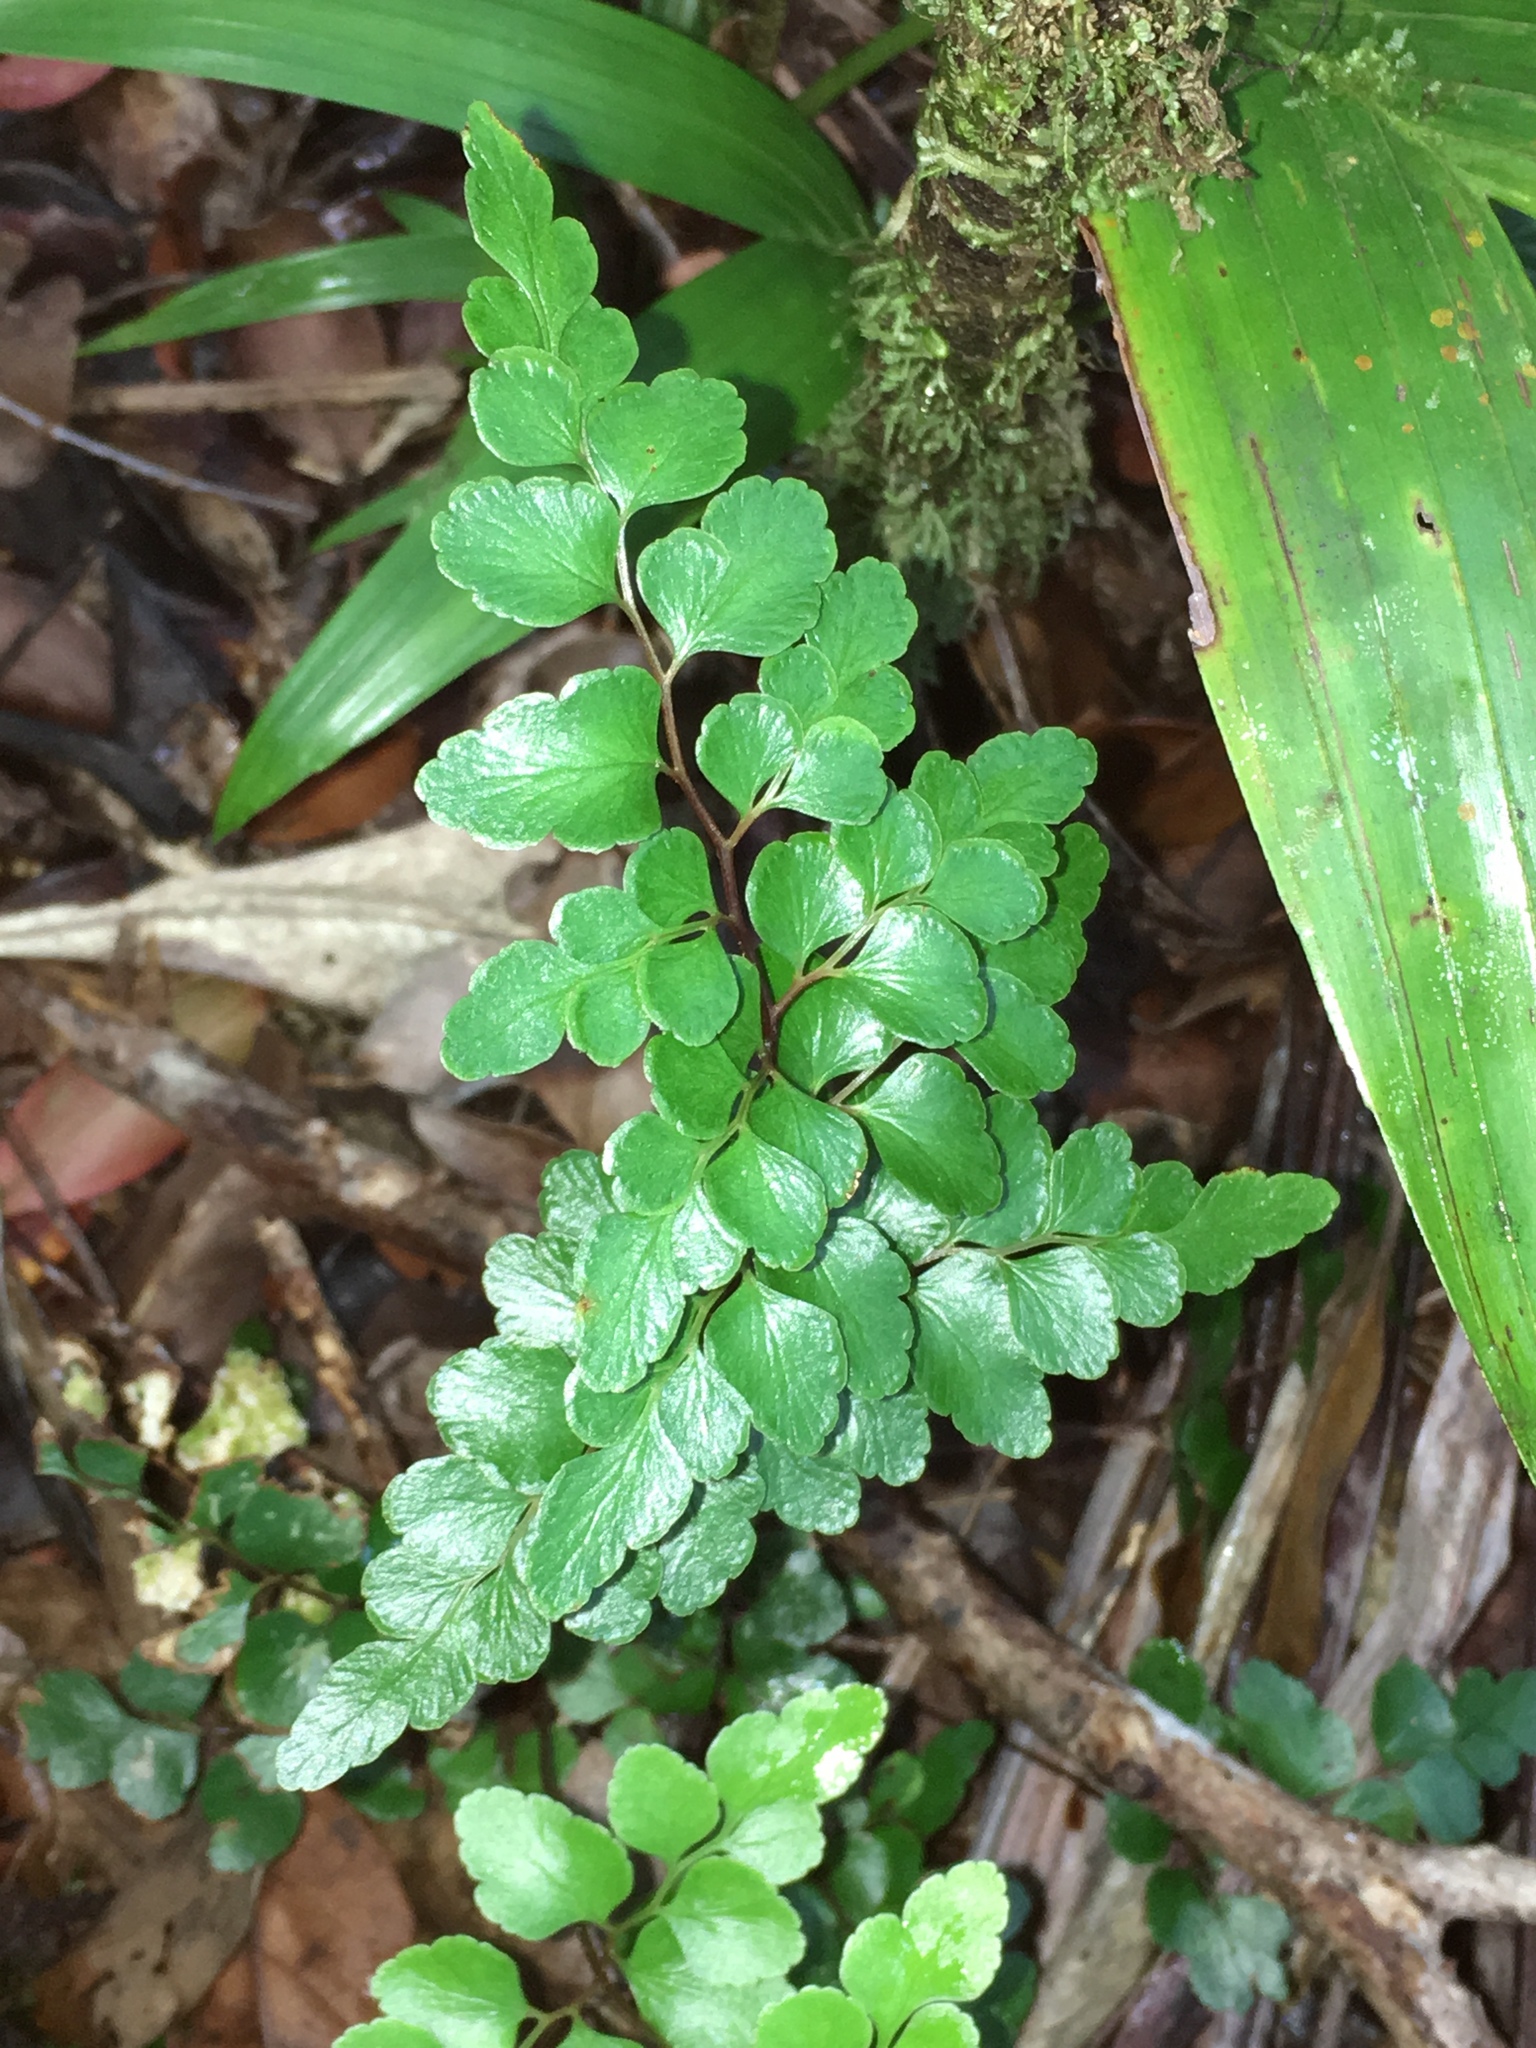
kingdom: Plantae
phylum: Tracheophyta
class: Polypodiopsida
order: Polypodiales
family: Lindsaeaceae
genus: Lindsaea
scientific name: Lindsaea rufa
